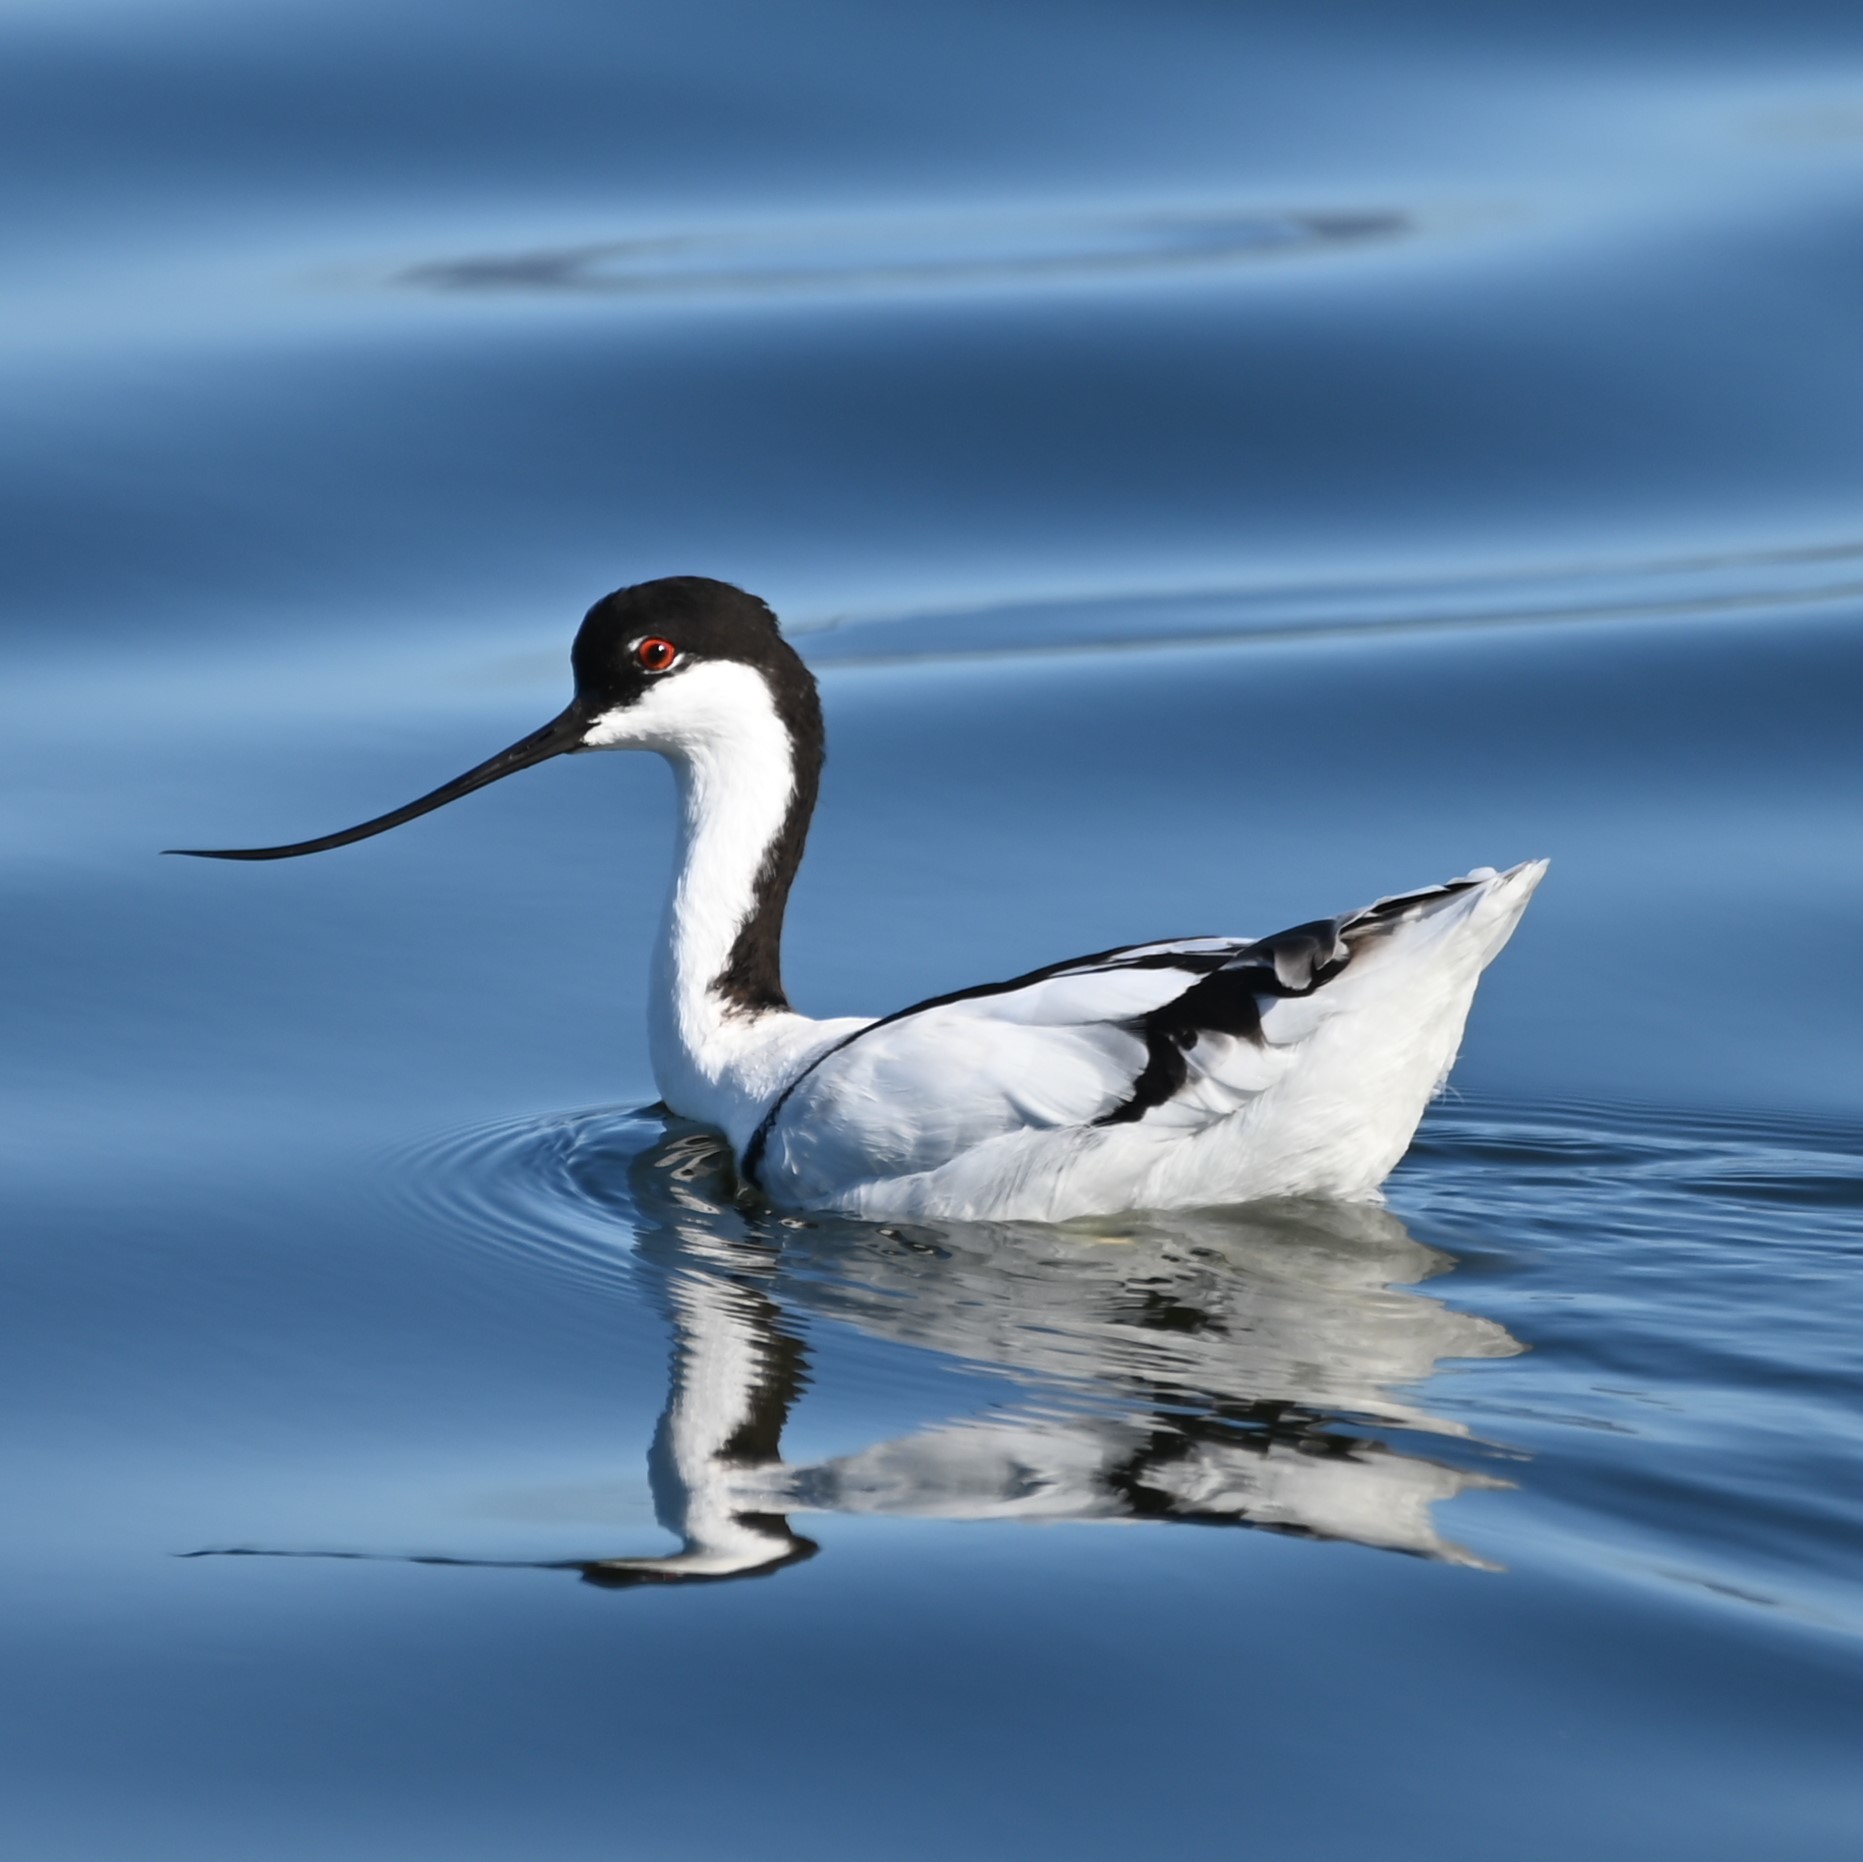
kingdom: Animalia
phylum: Chordata
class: Aves
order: Charadriiformes
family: Recurvirostridae
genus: Recurvirostra
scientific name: Recurvirostra avosetta
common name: Pied avocet
